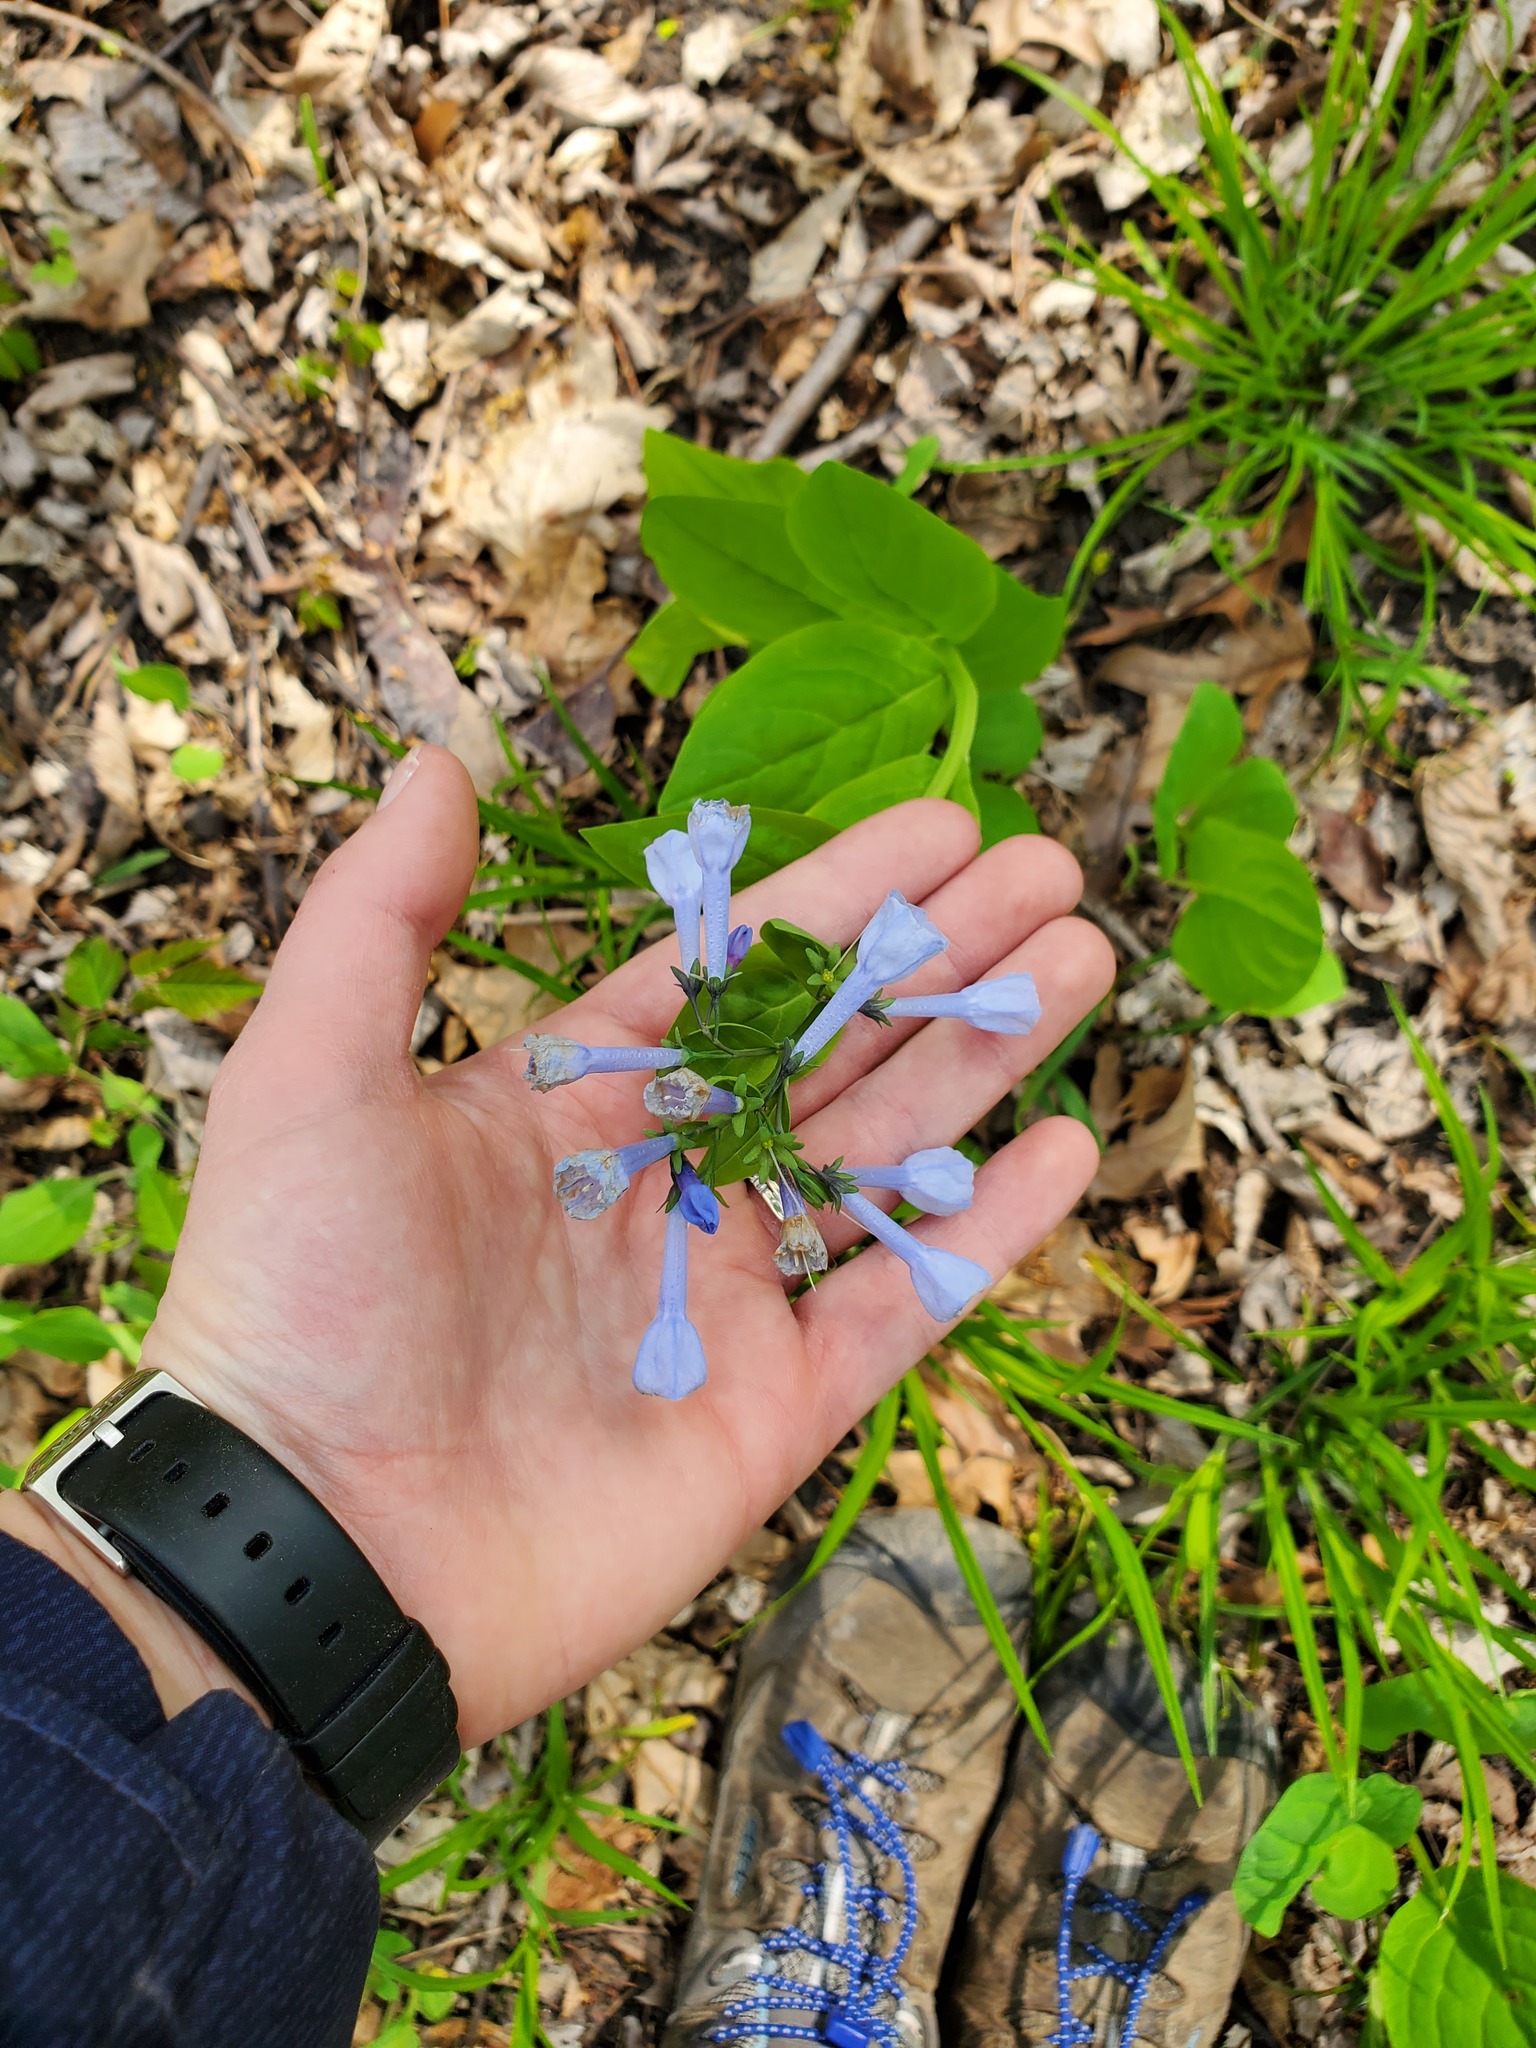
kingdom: Plantae
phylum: Tracheophyta
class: Magnoliopsida
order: Boraginales
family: Boraginaceae
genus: Mertensia
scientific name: Mertensia virginica
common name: Virginia bluebells
